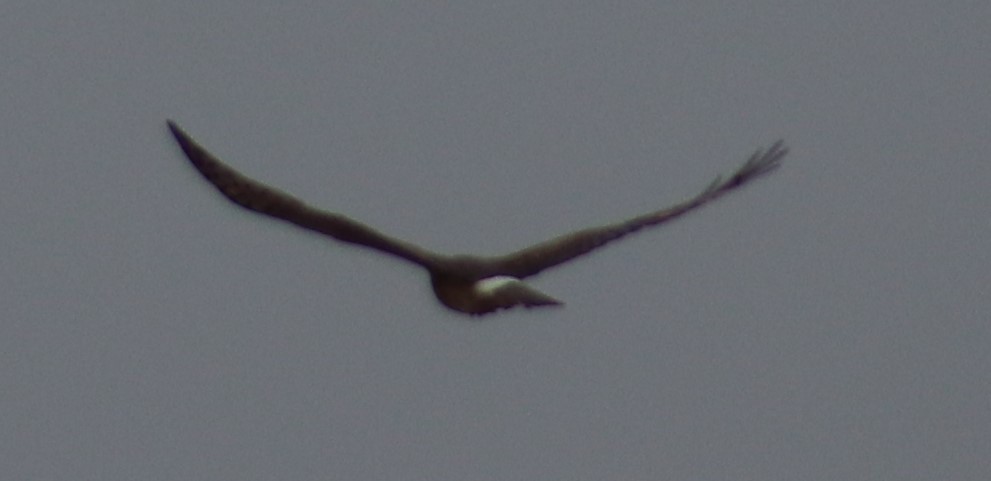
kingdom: Animalia
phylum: Chordata
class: Aves
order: Accipitriformes
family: Accipitridae
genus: Circus
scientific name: Circus cyaneus
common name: Hen harrier
